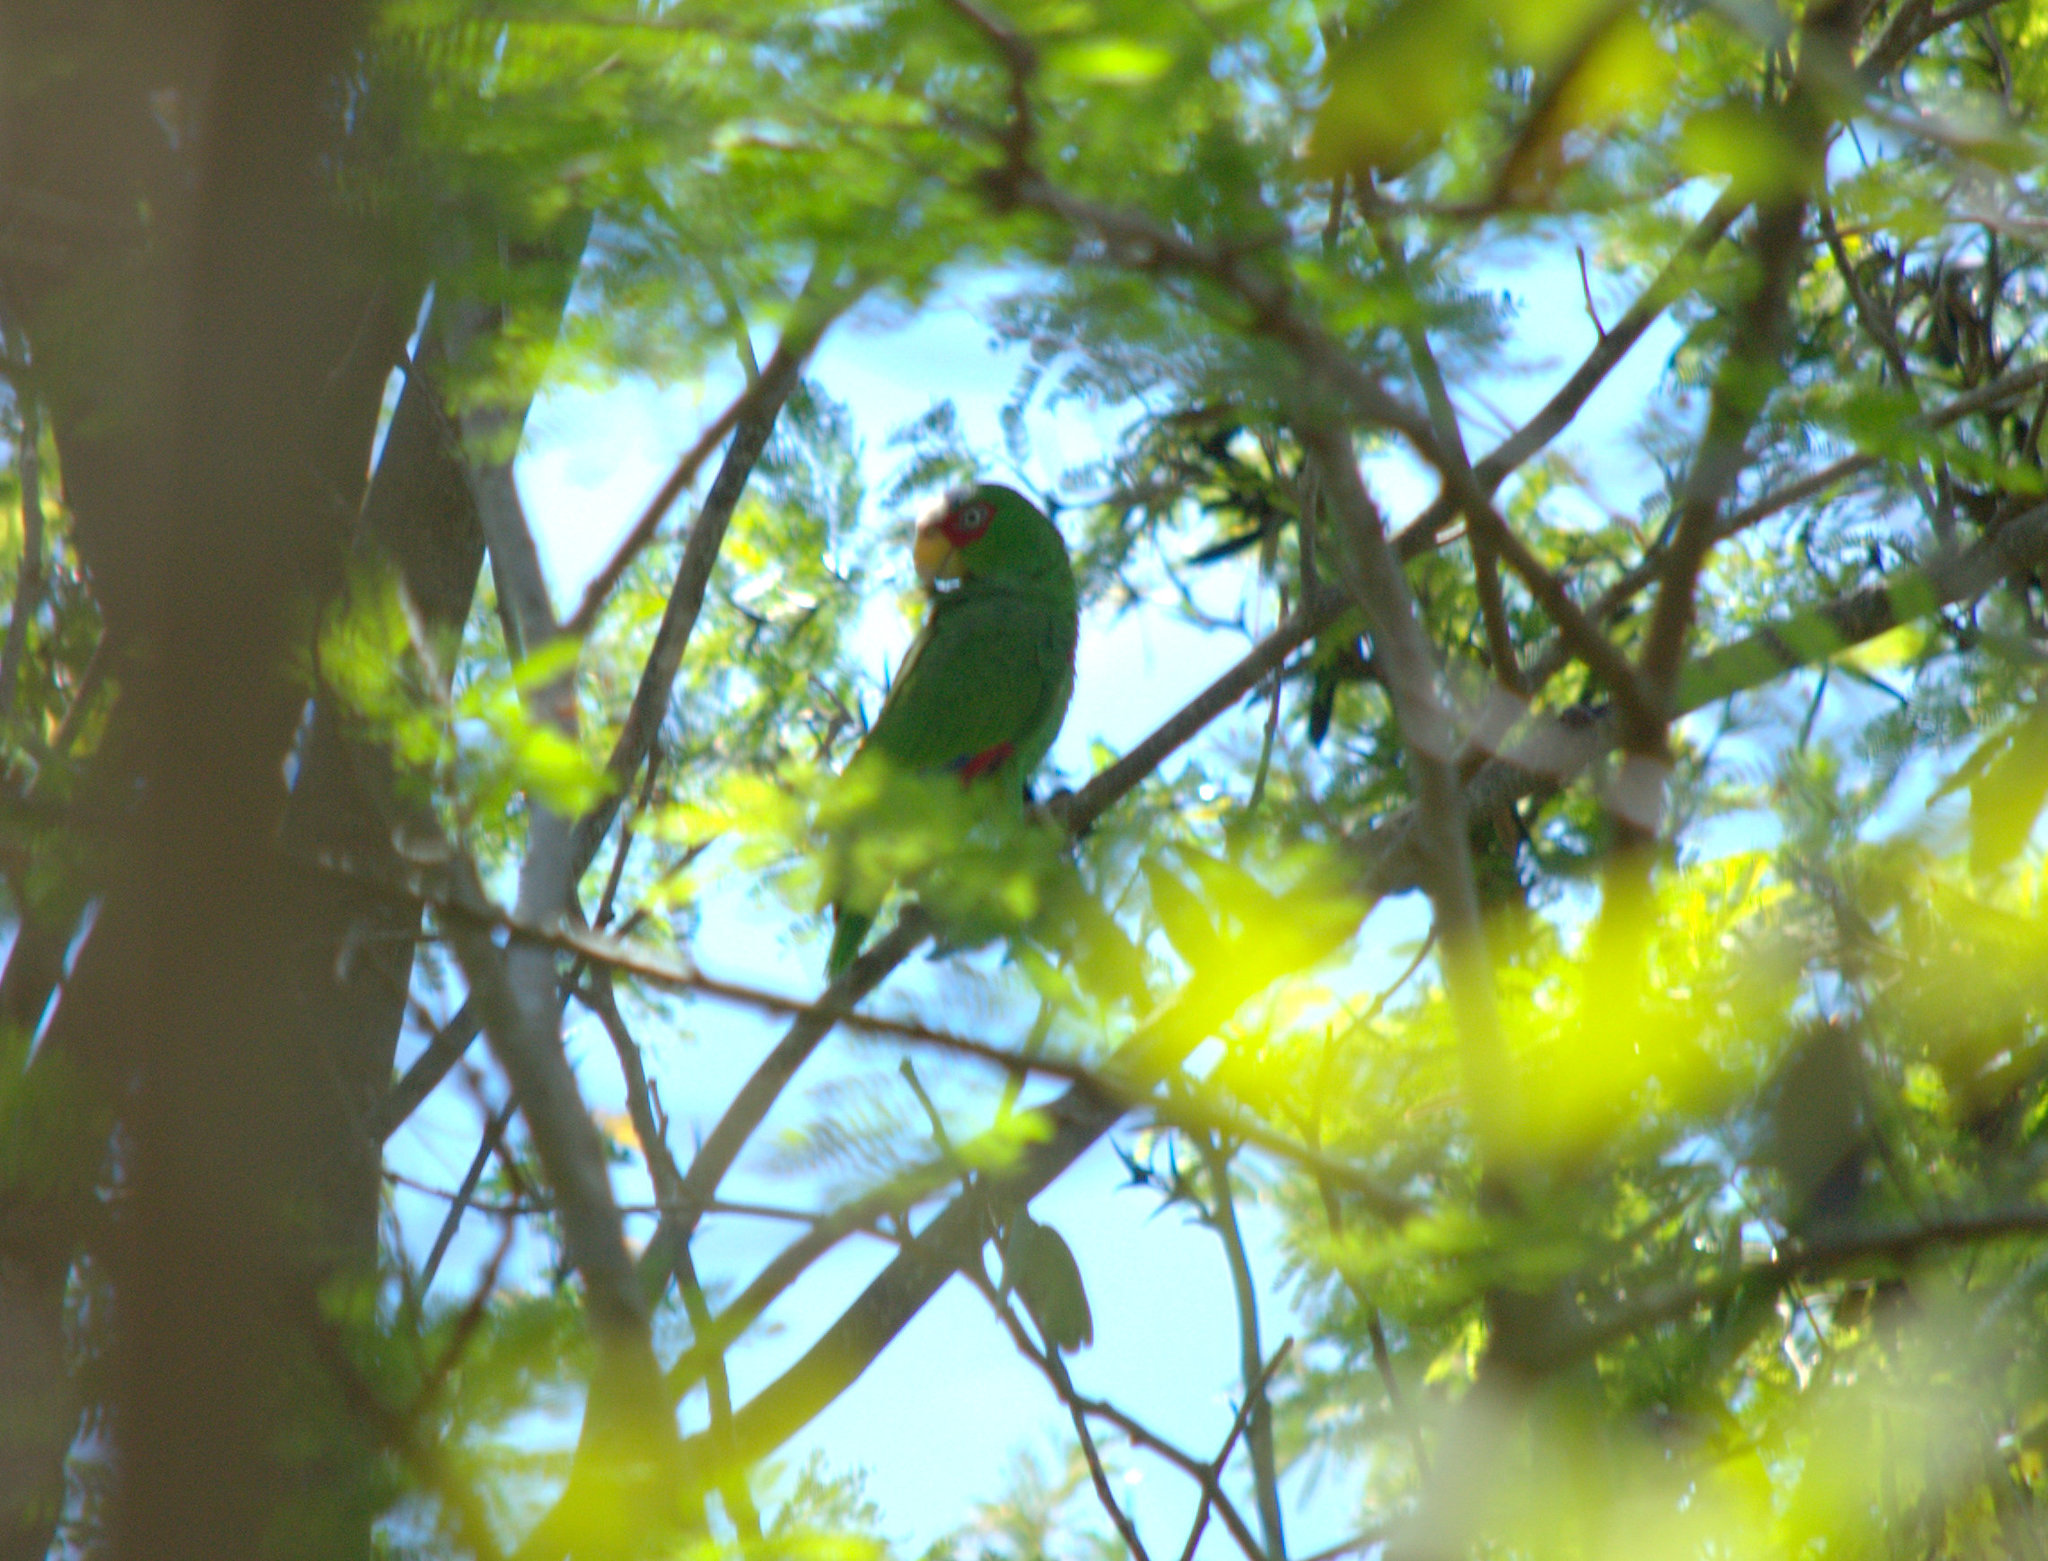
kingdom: Animalia
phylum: Chordata
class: Aves
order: Psittaciformes
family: Psittacidae
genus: Amazona
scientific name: Amazona albifrons
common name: White-fronted amazon
